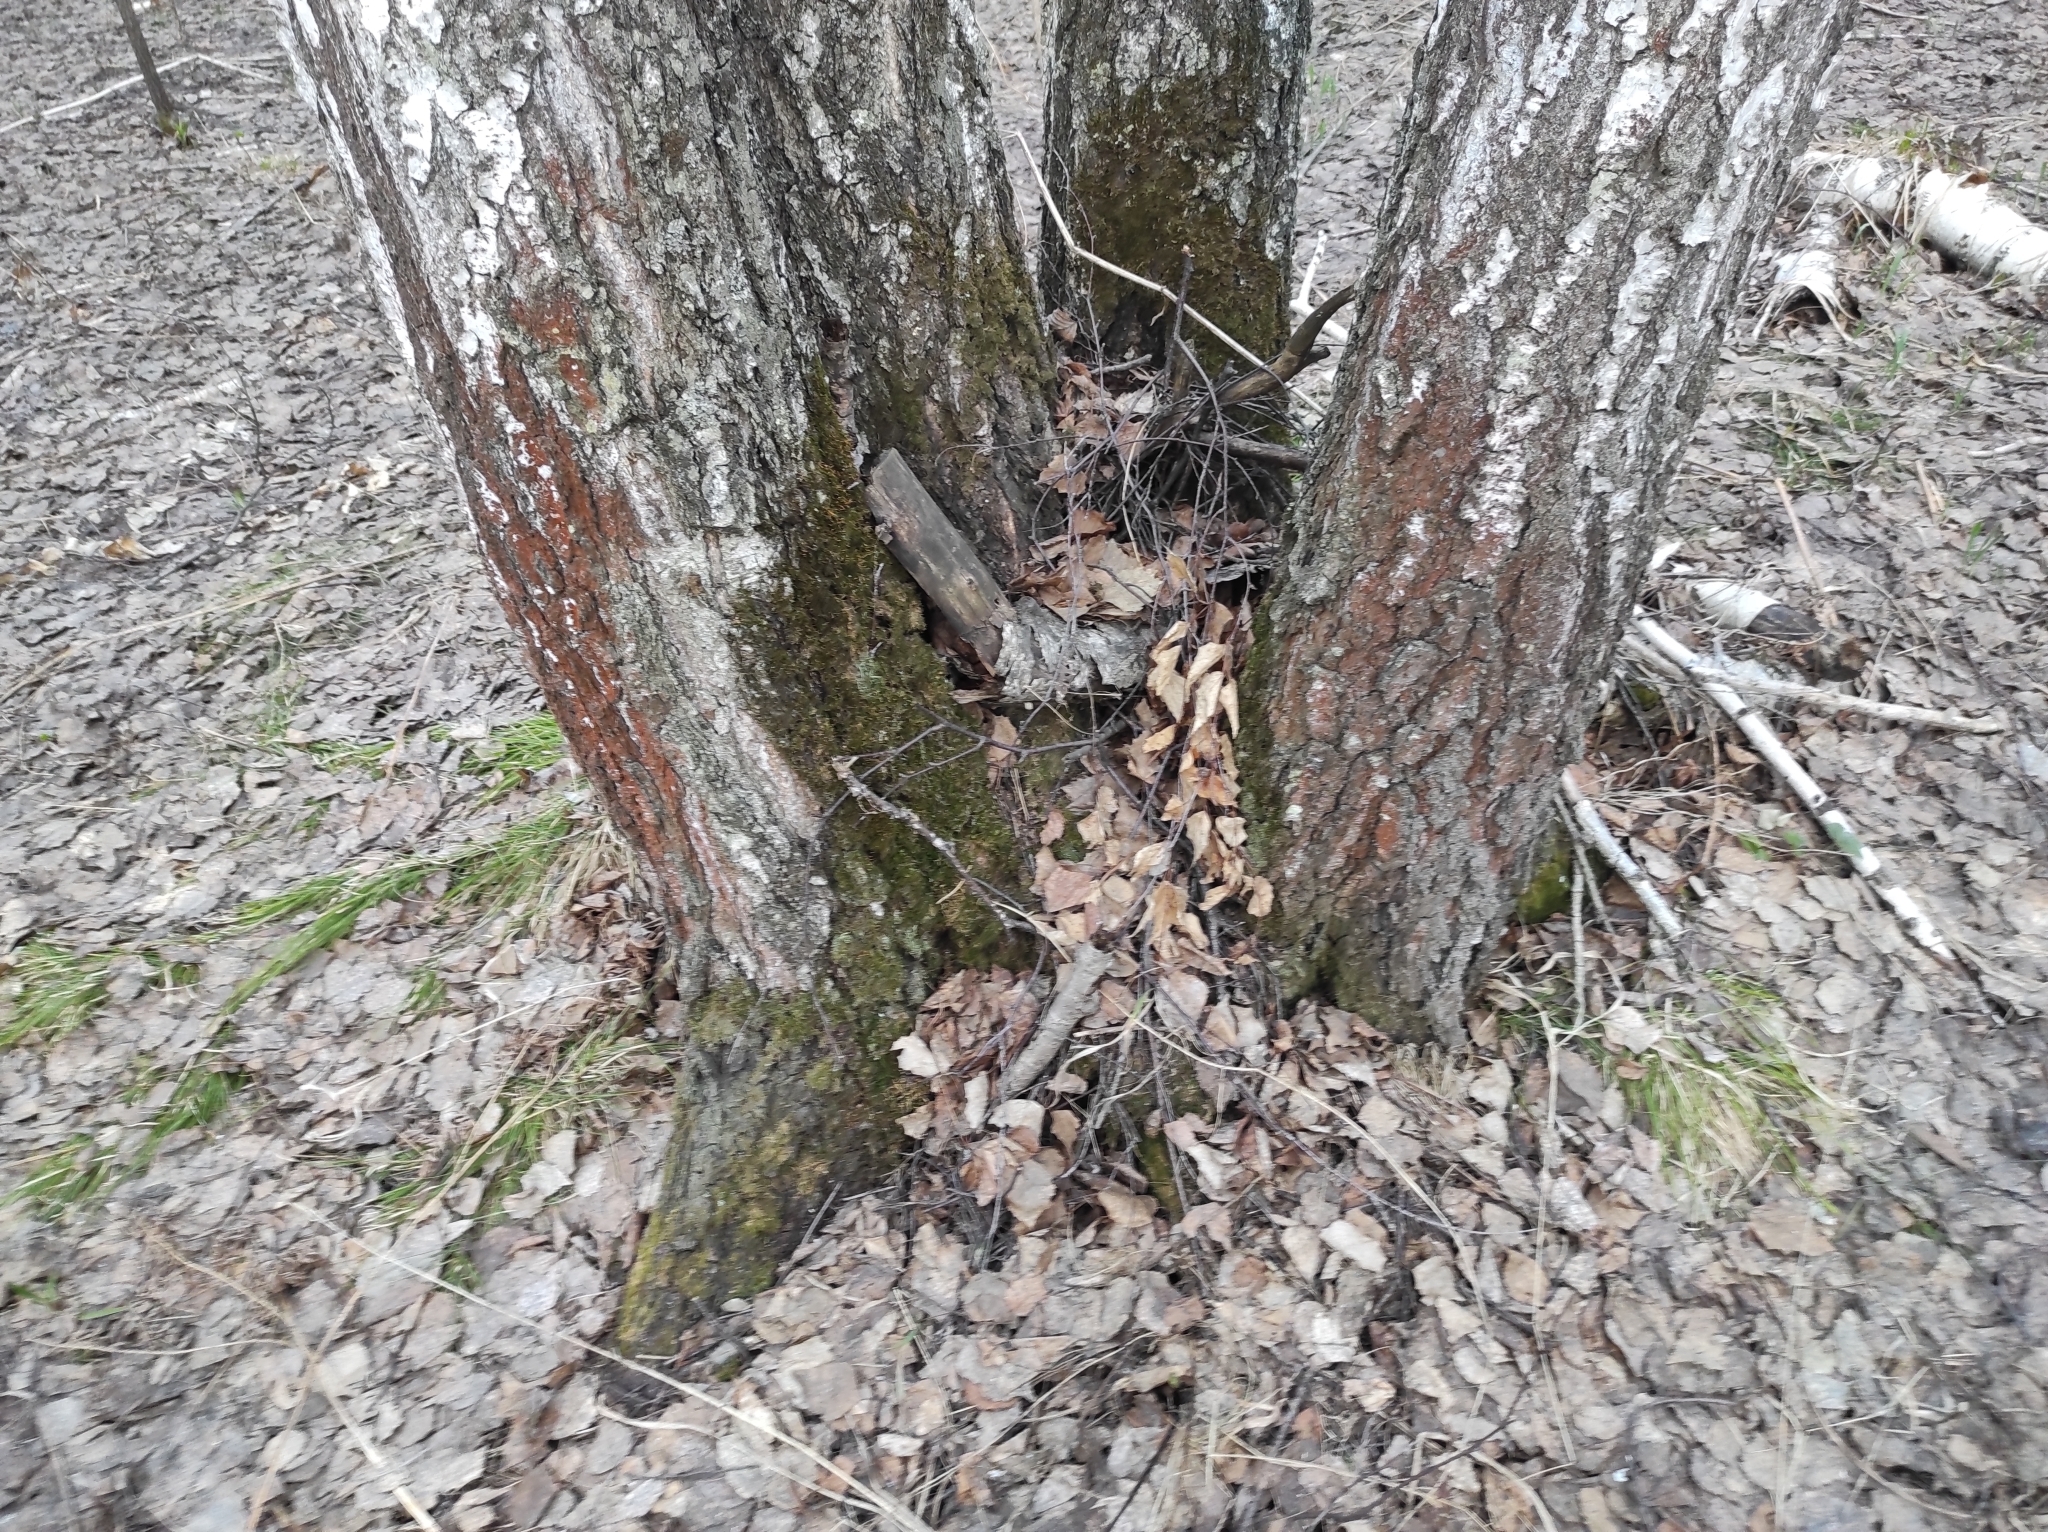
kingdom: Plantae
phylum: Tracheophyta
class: Magnoliopsida
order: Fagales
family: Betulaceae
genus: Betula
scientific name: Betula pendula
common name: Silver birch
